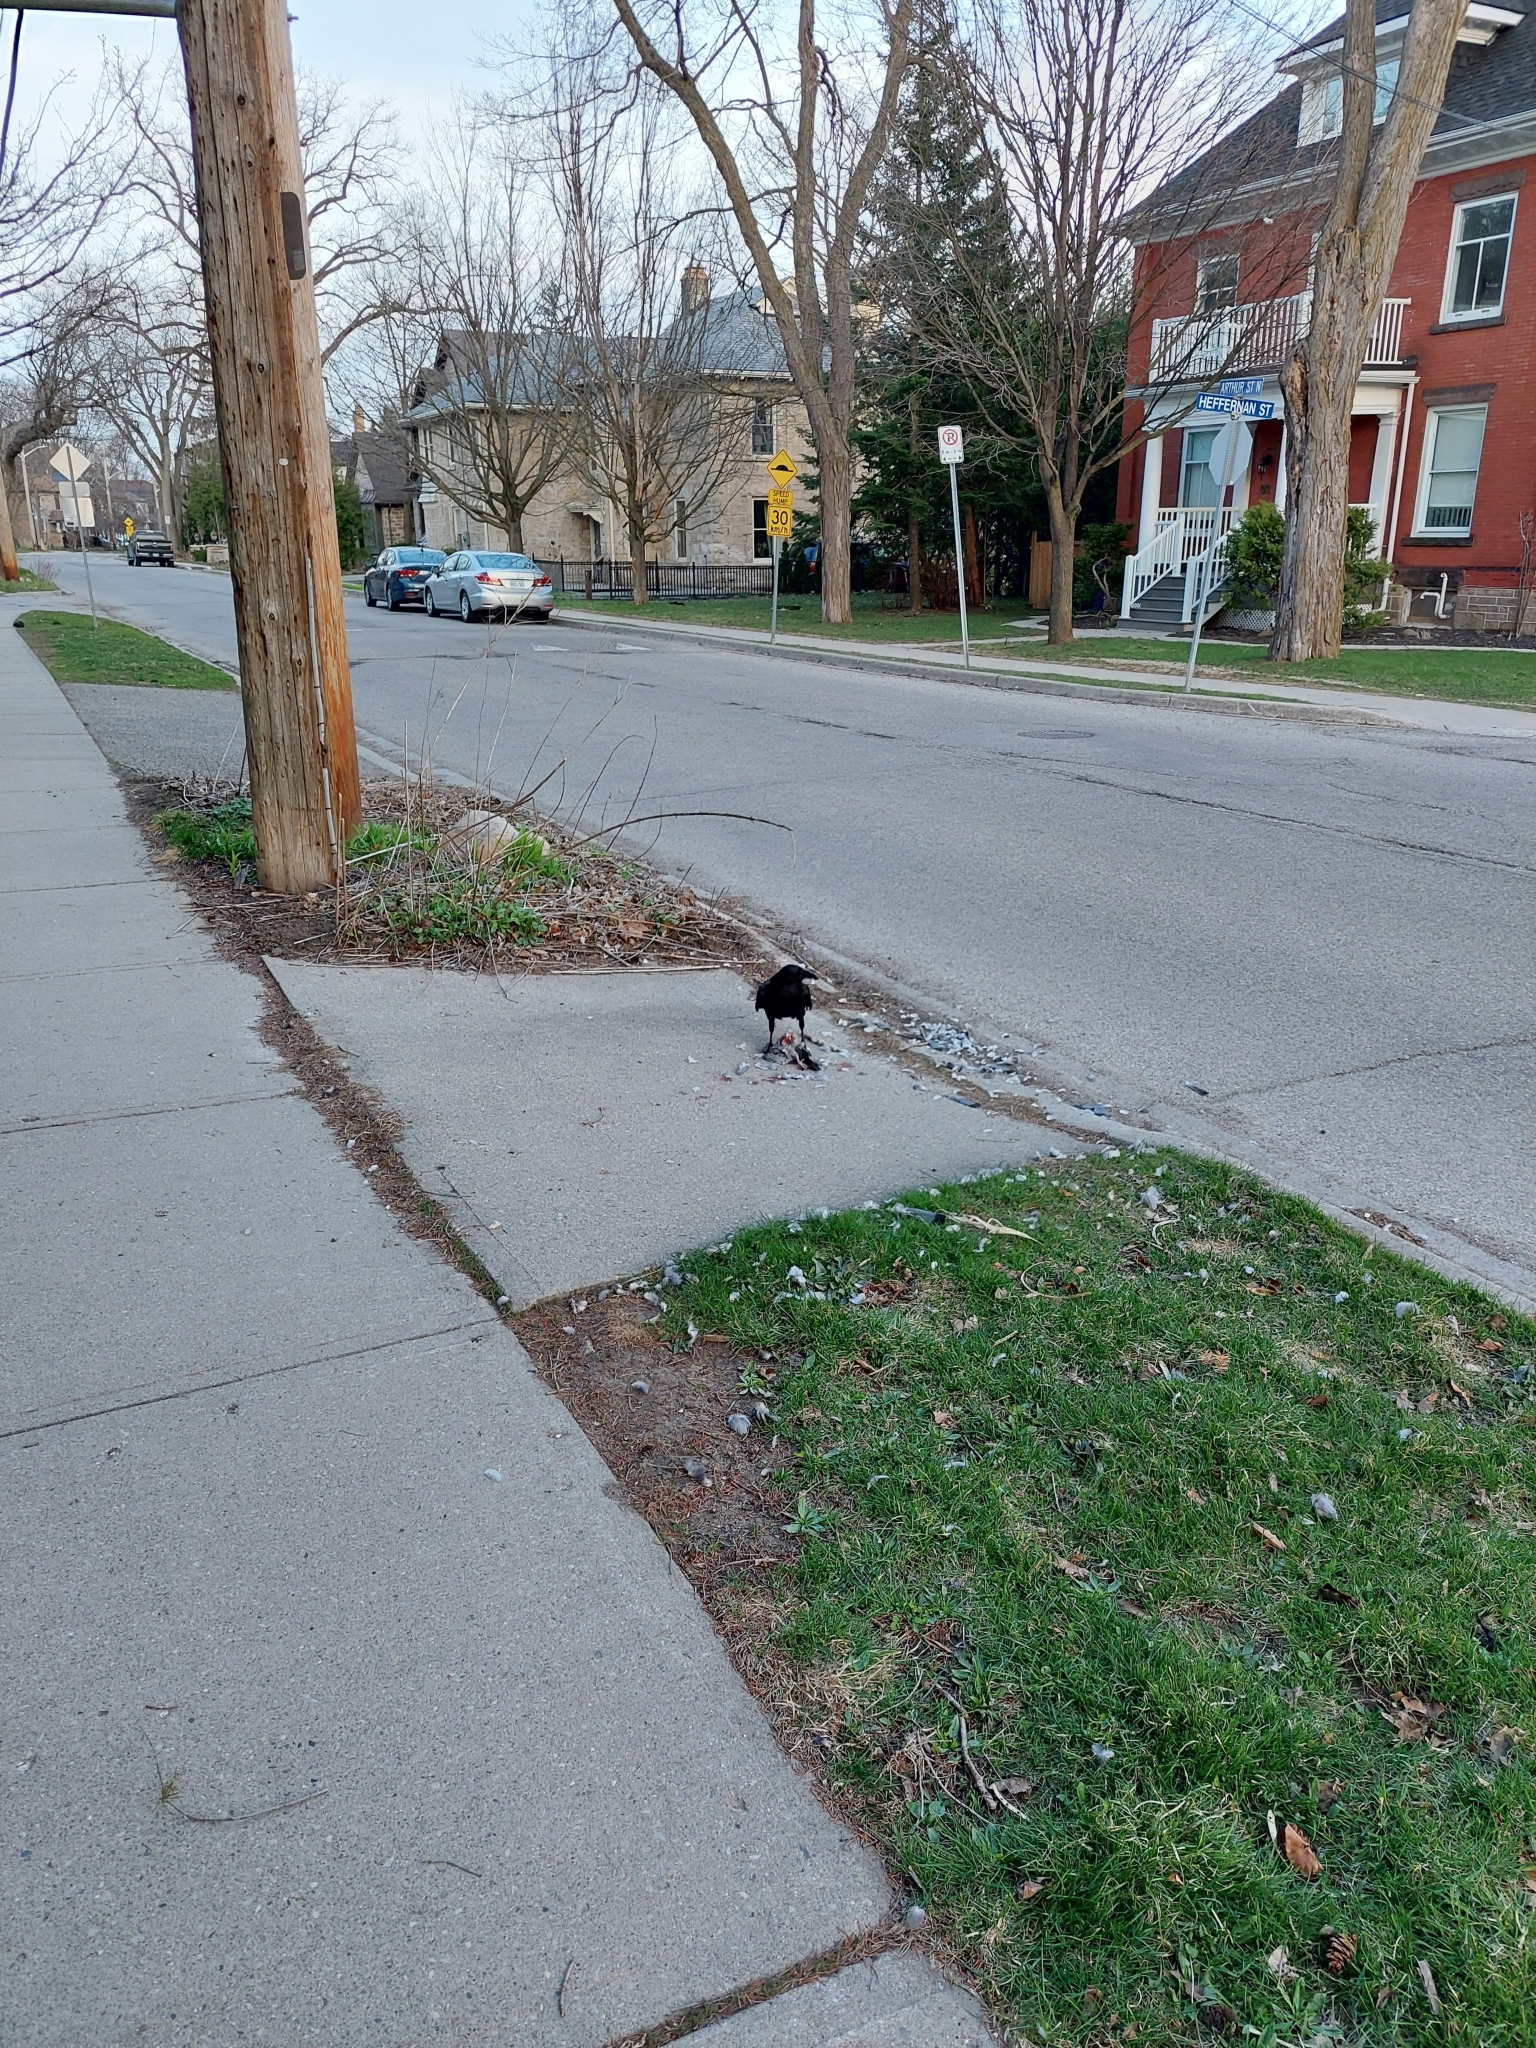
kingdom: Animalia
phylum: Chordata
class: Aves
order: Passeriformes
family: Corvidae
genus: Corvus
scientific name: Corvus corax
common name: Common raven
